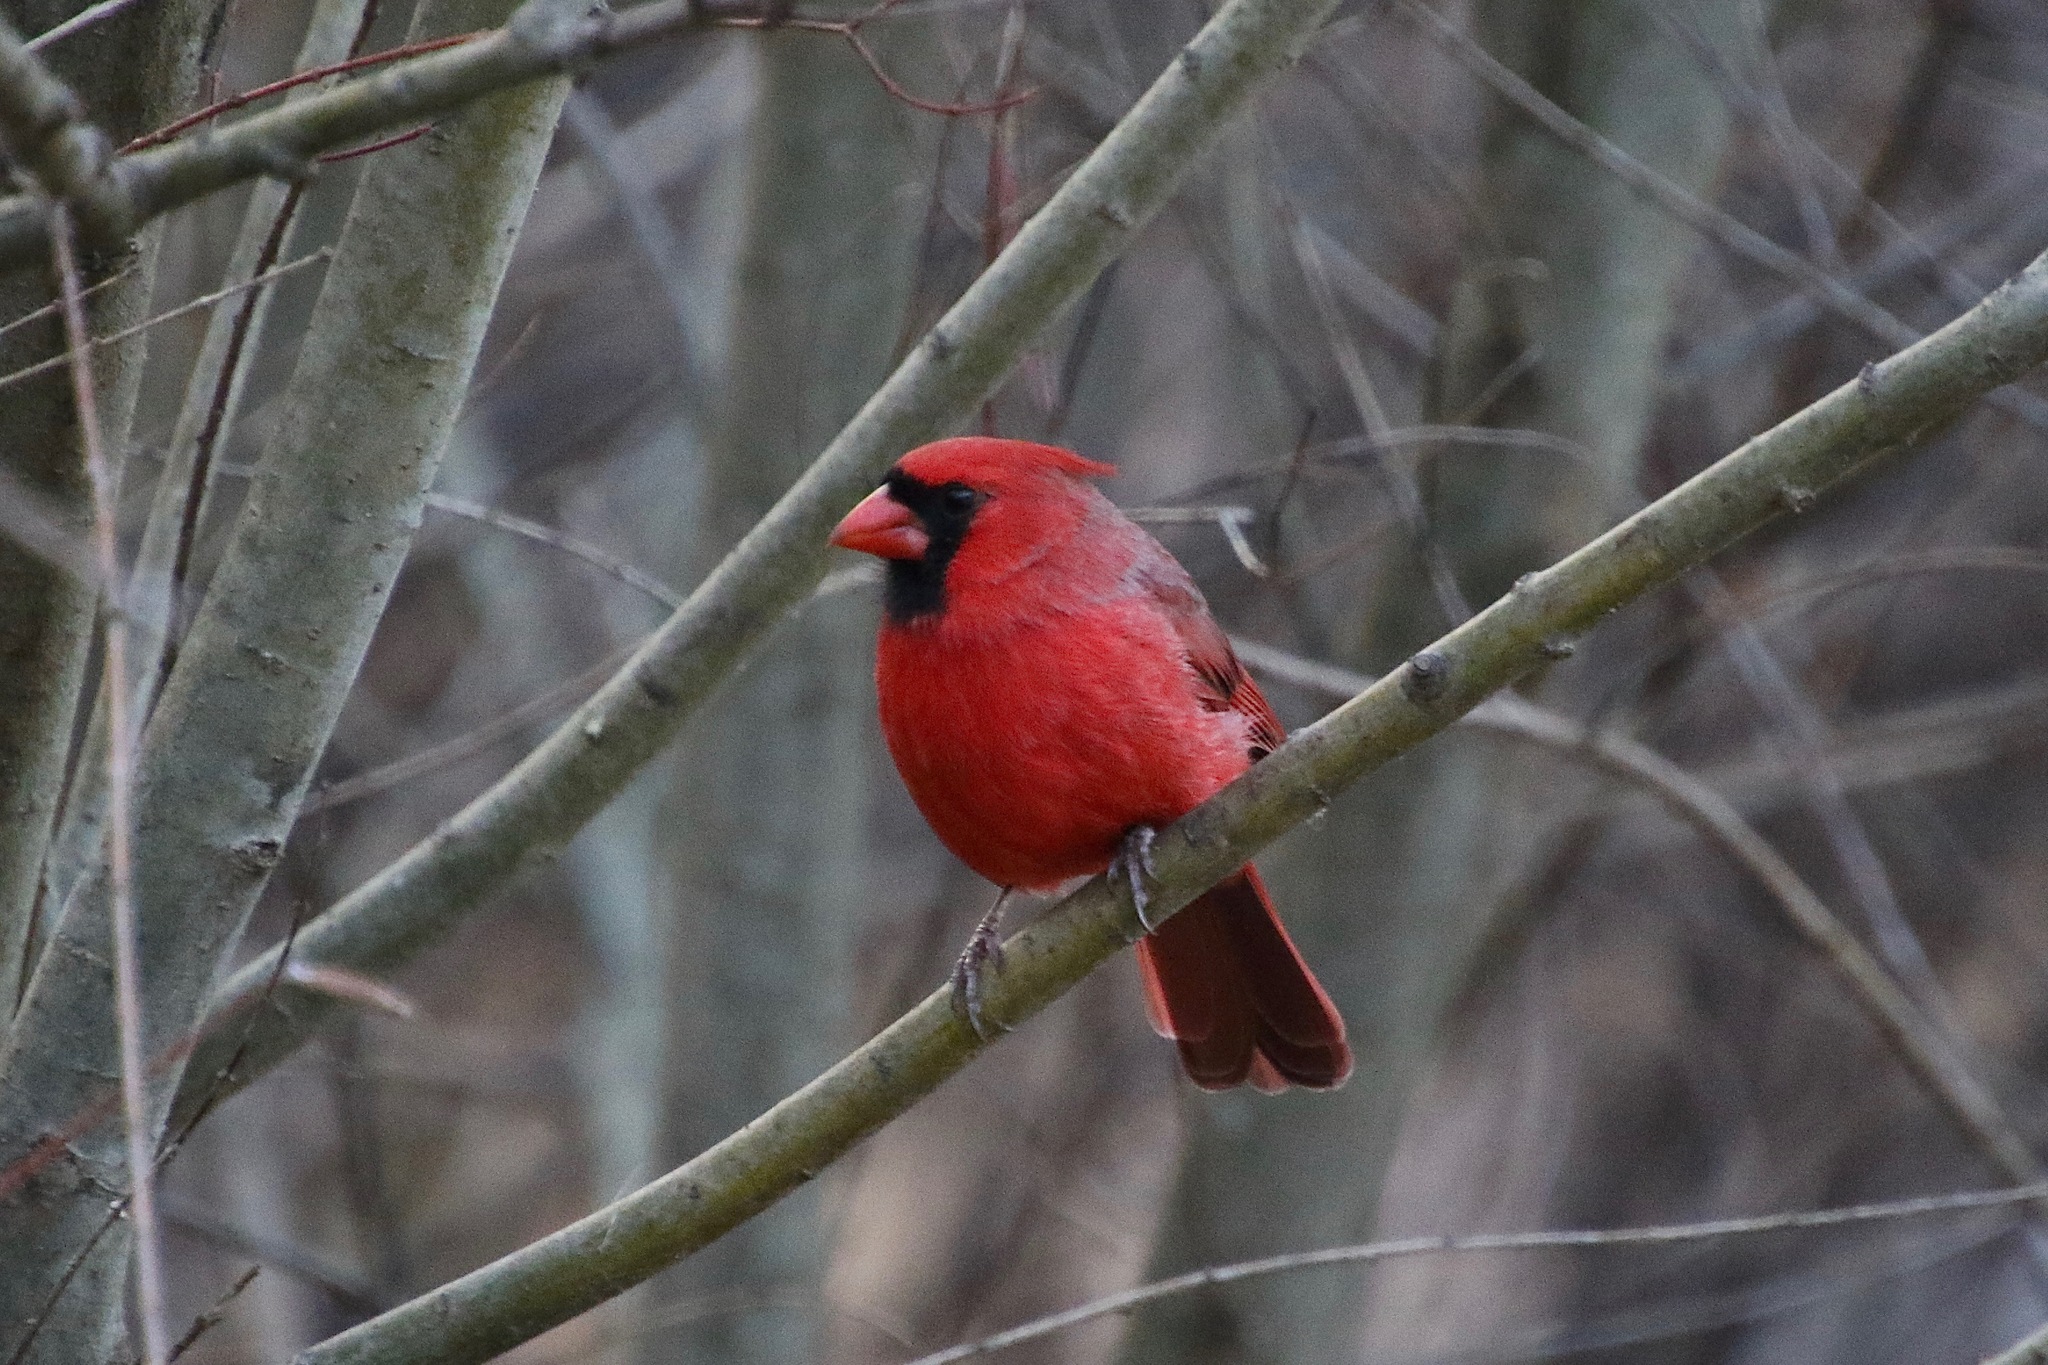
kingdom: Animalia
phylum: Chordata
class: Aves
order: Passeriformes
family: Cardinalidae
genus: Cardinalis
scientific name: Cardinalis cardinalis
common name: Northern cardinal
